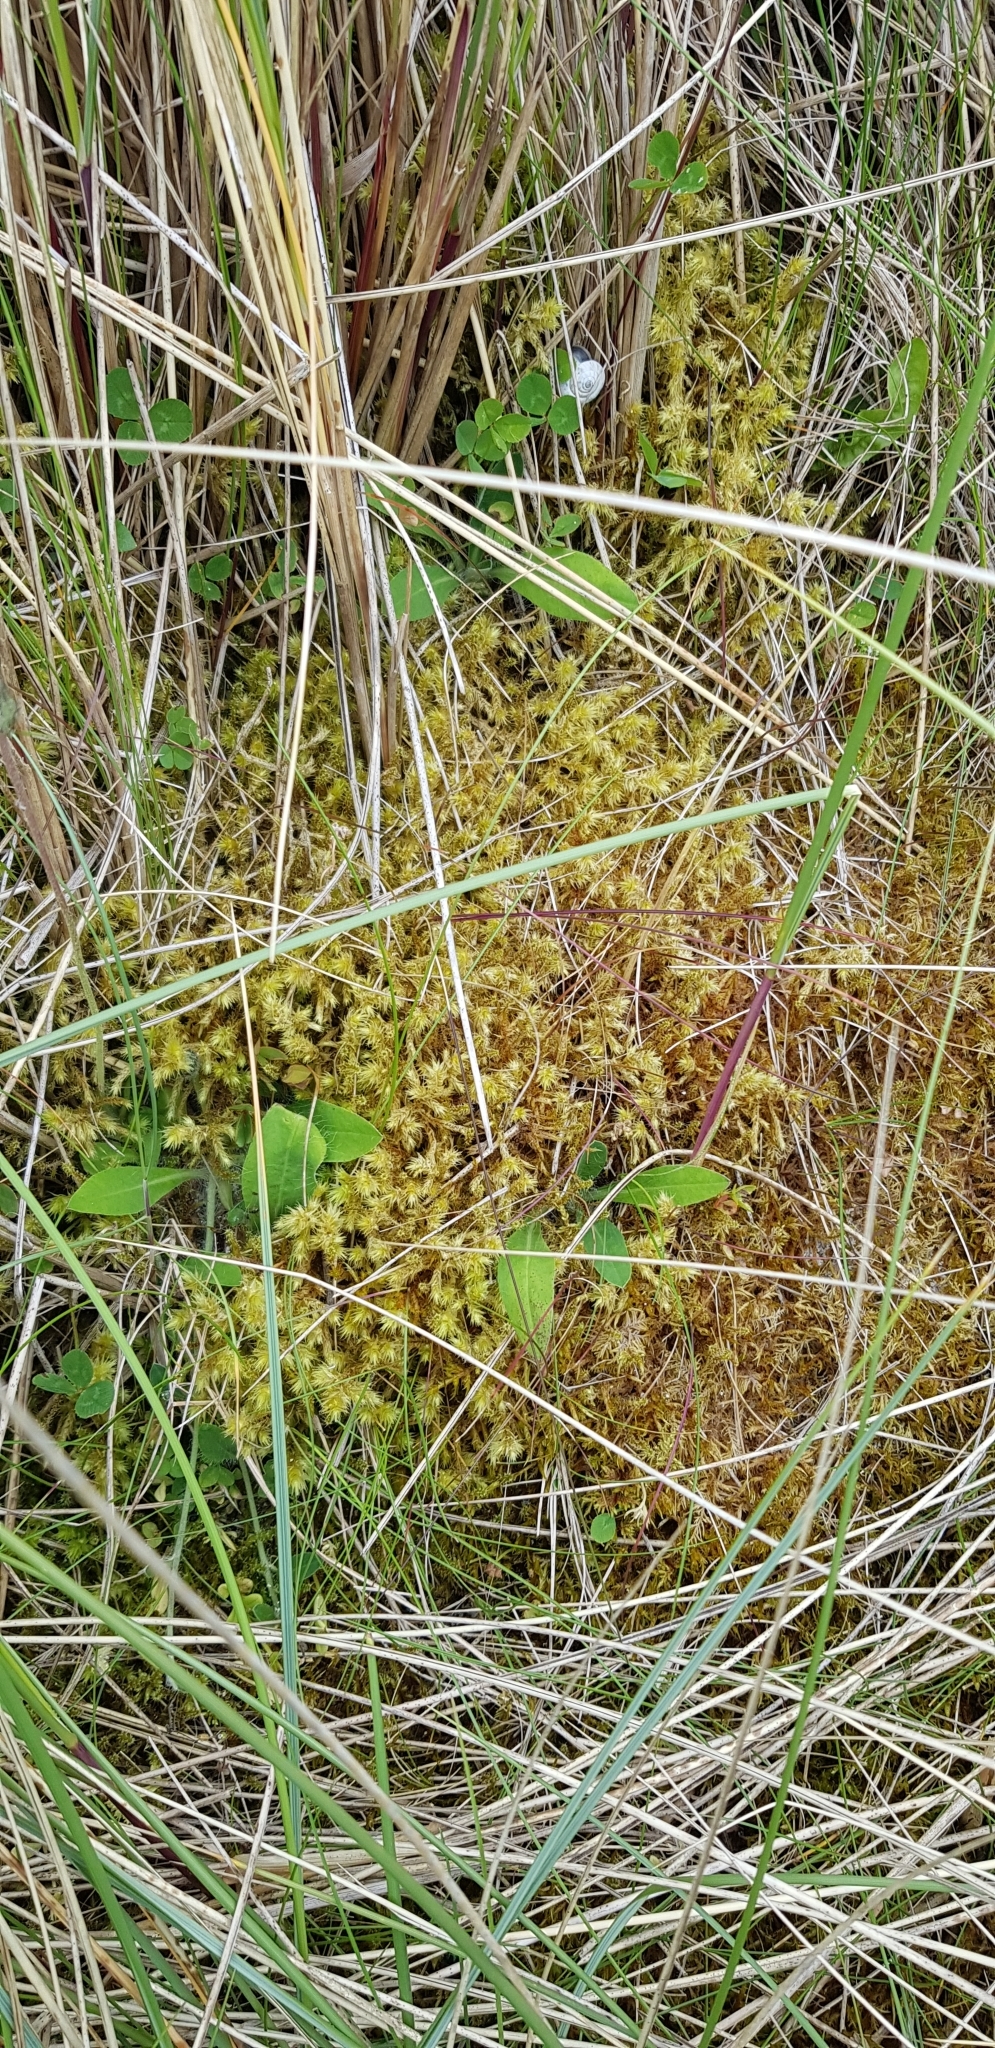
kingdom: Plantae
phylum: Bryophyta
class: Bryopsida
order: Hypnales
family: Hylocomiaceae
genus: Hylocomiadelphus
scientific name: Hylocomiadelphus triquetrus
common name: Rough goose neck moss
